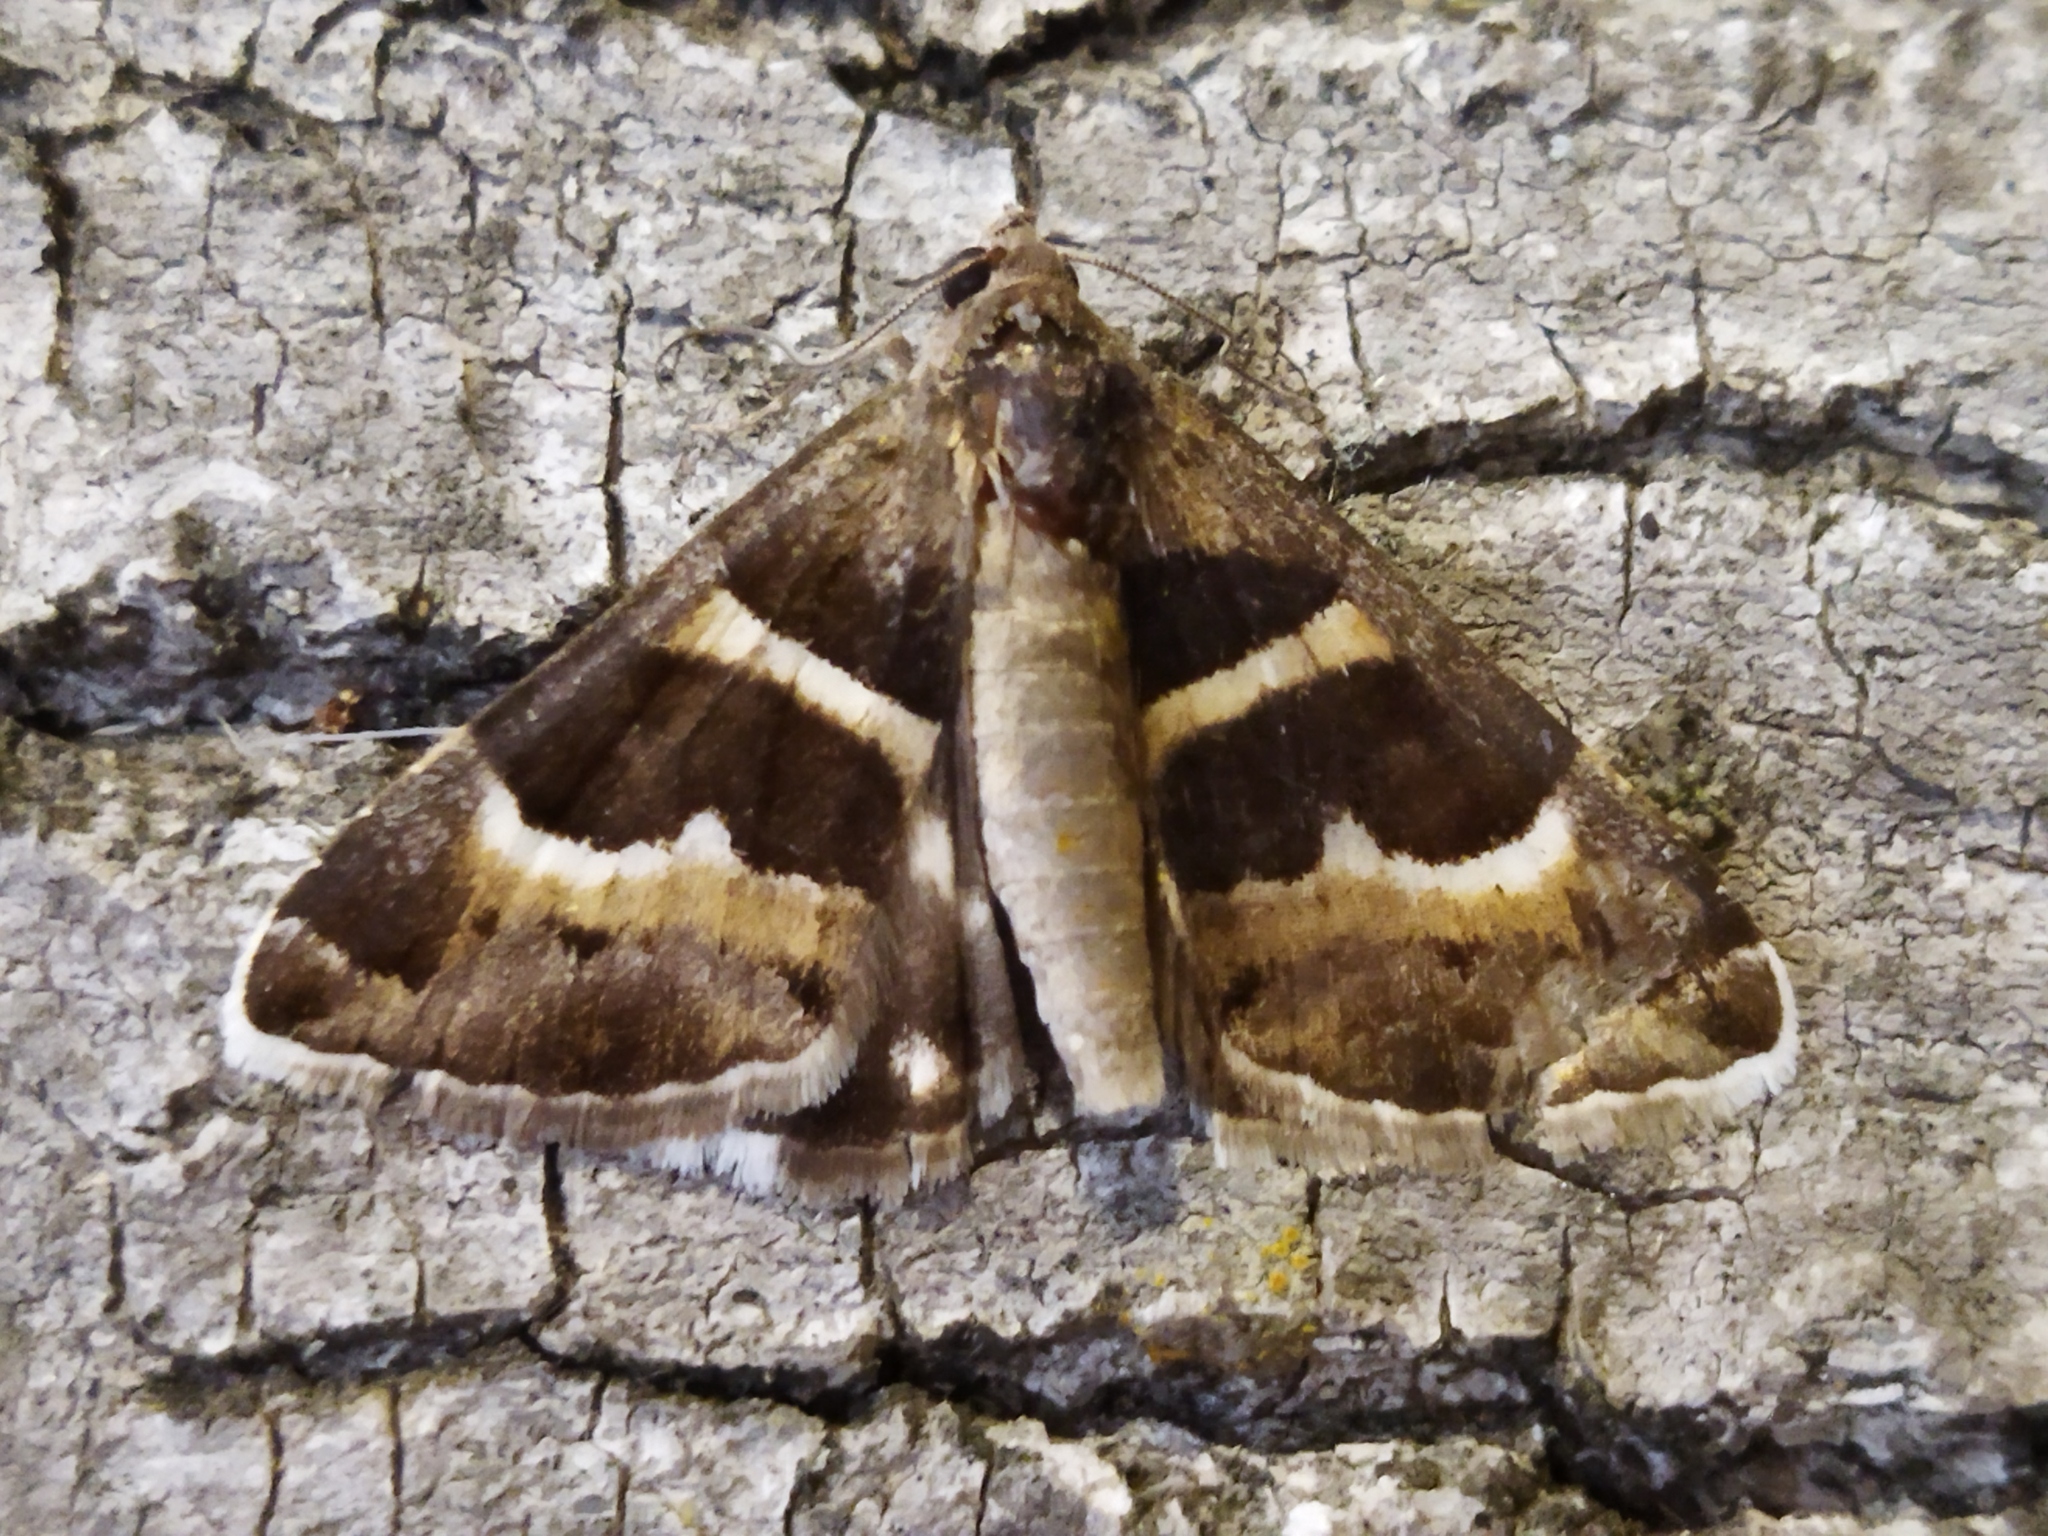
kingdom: Animalia
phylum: Arthropoda
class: Insecta
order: Lepidoptera
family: Erebidae
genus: Grammodes
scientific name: Grammodes stolida
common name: Geometrician
